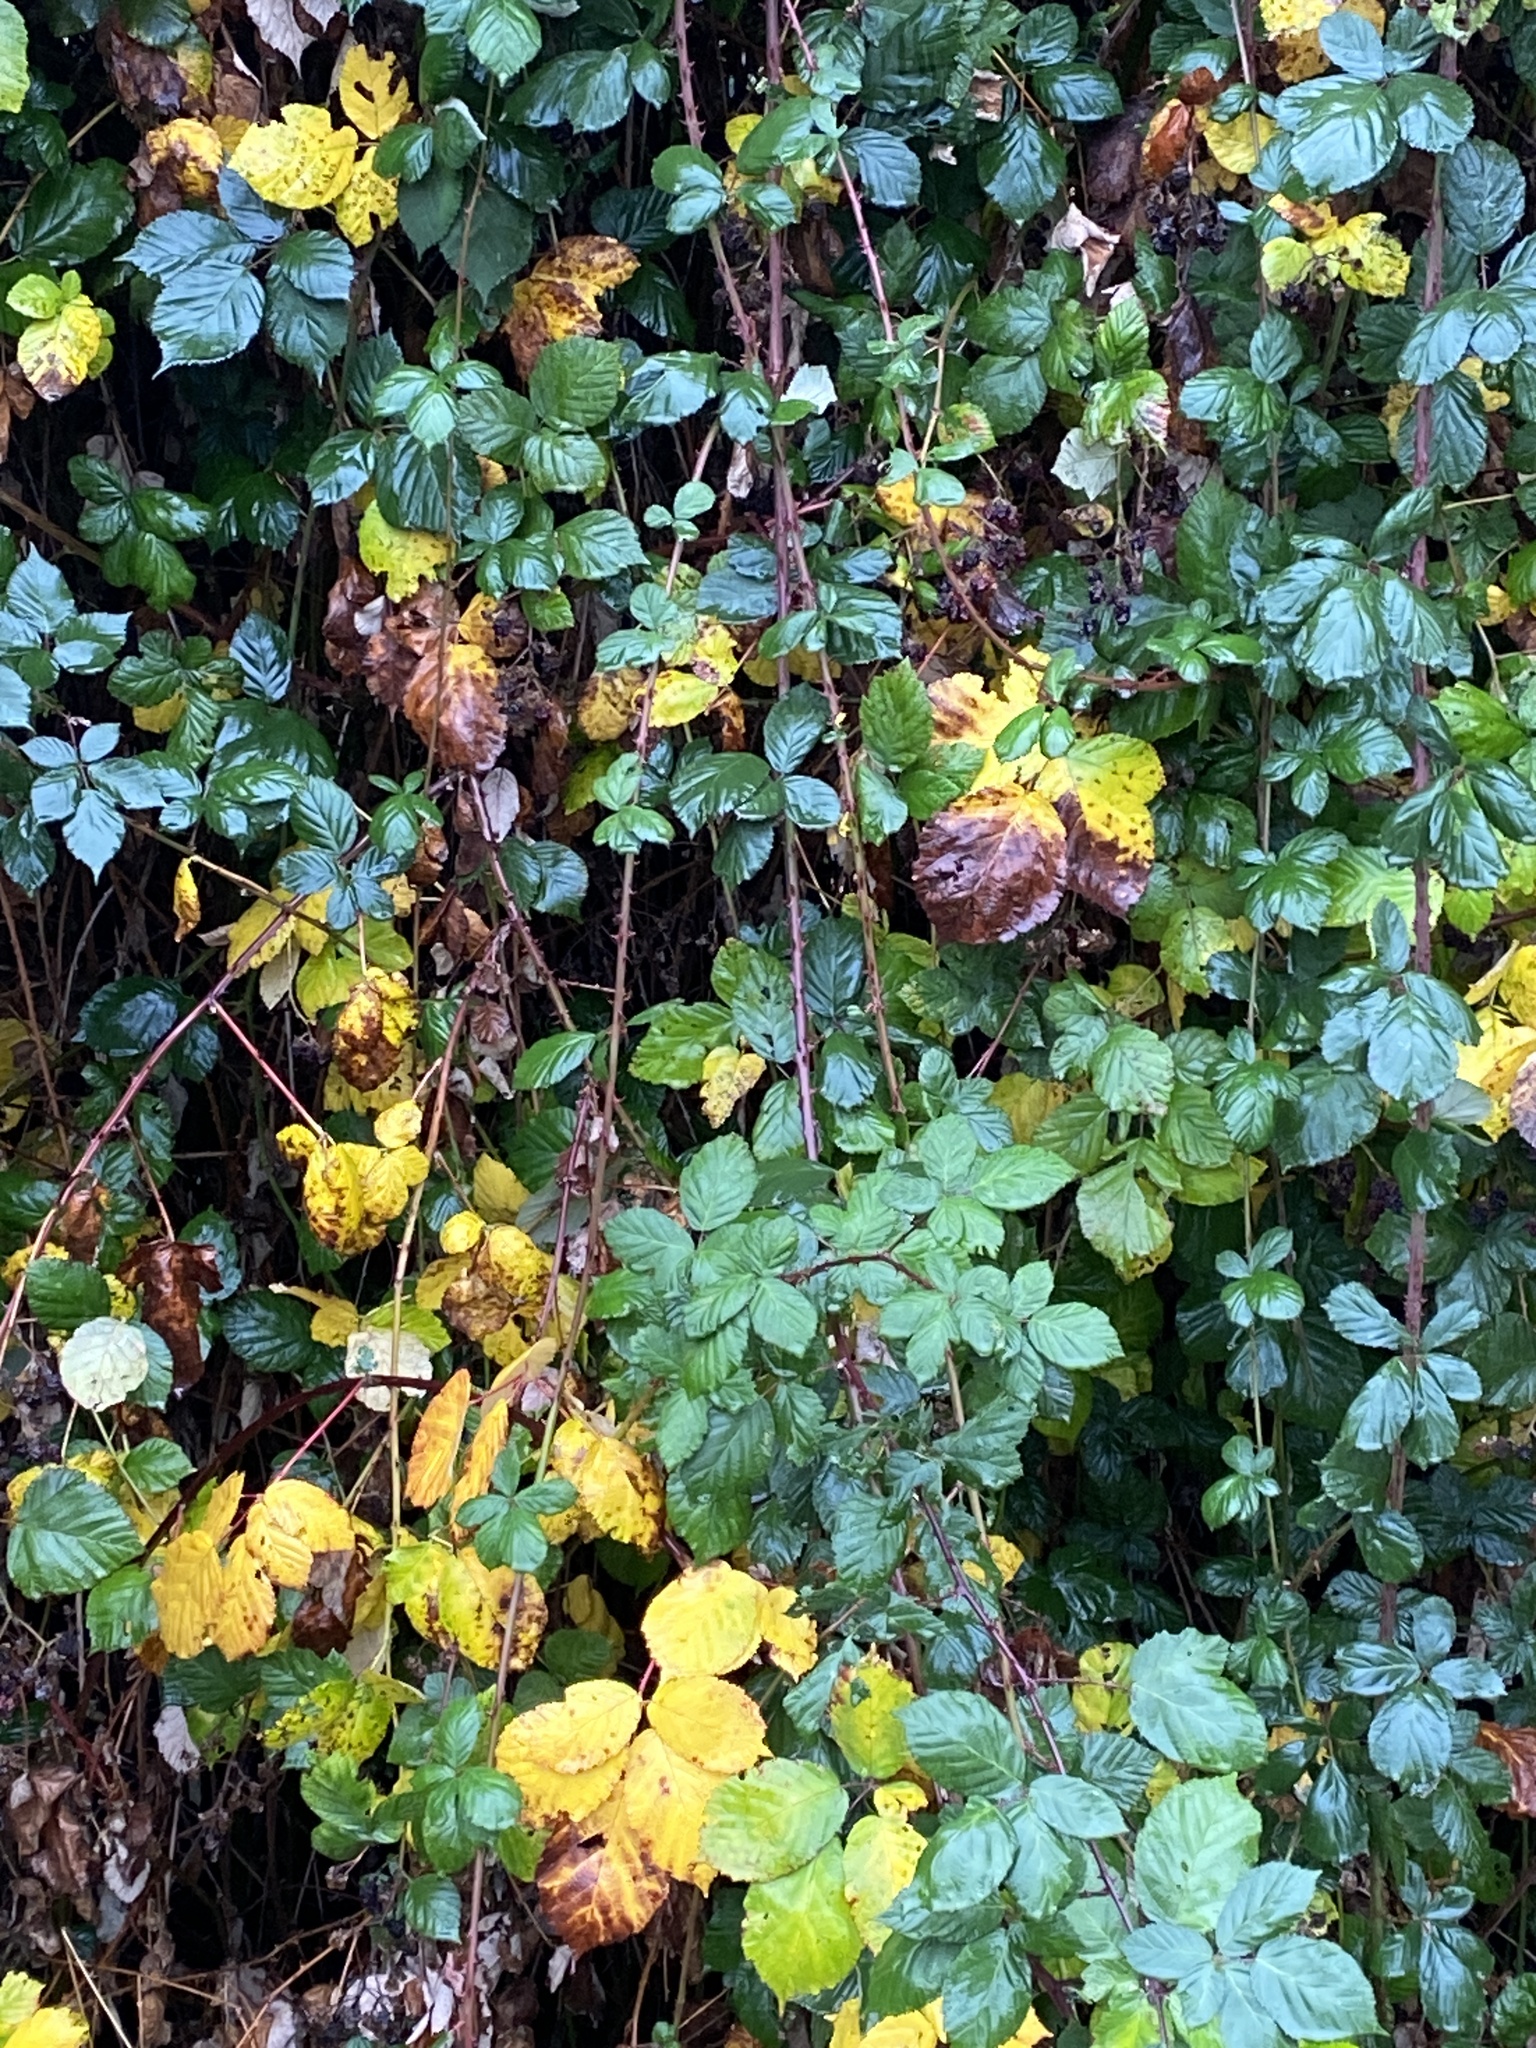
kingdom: Plantae
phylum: Tracheophyta
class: Magnoliopsida
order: Rosales
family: Rosaceae
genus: Rubus
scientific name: Rubus bifrons
